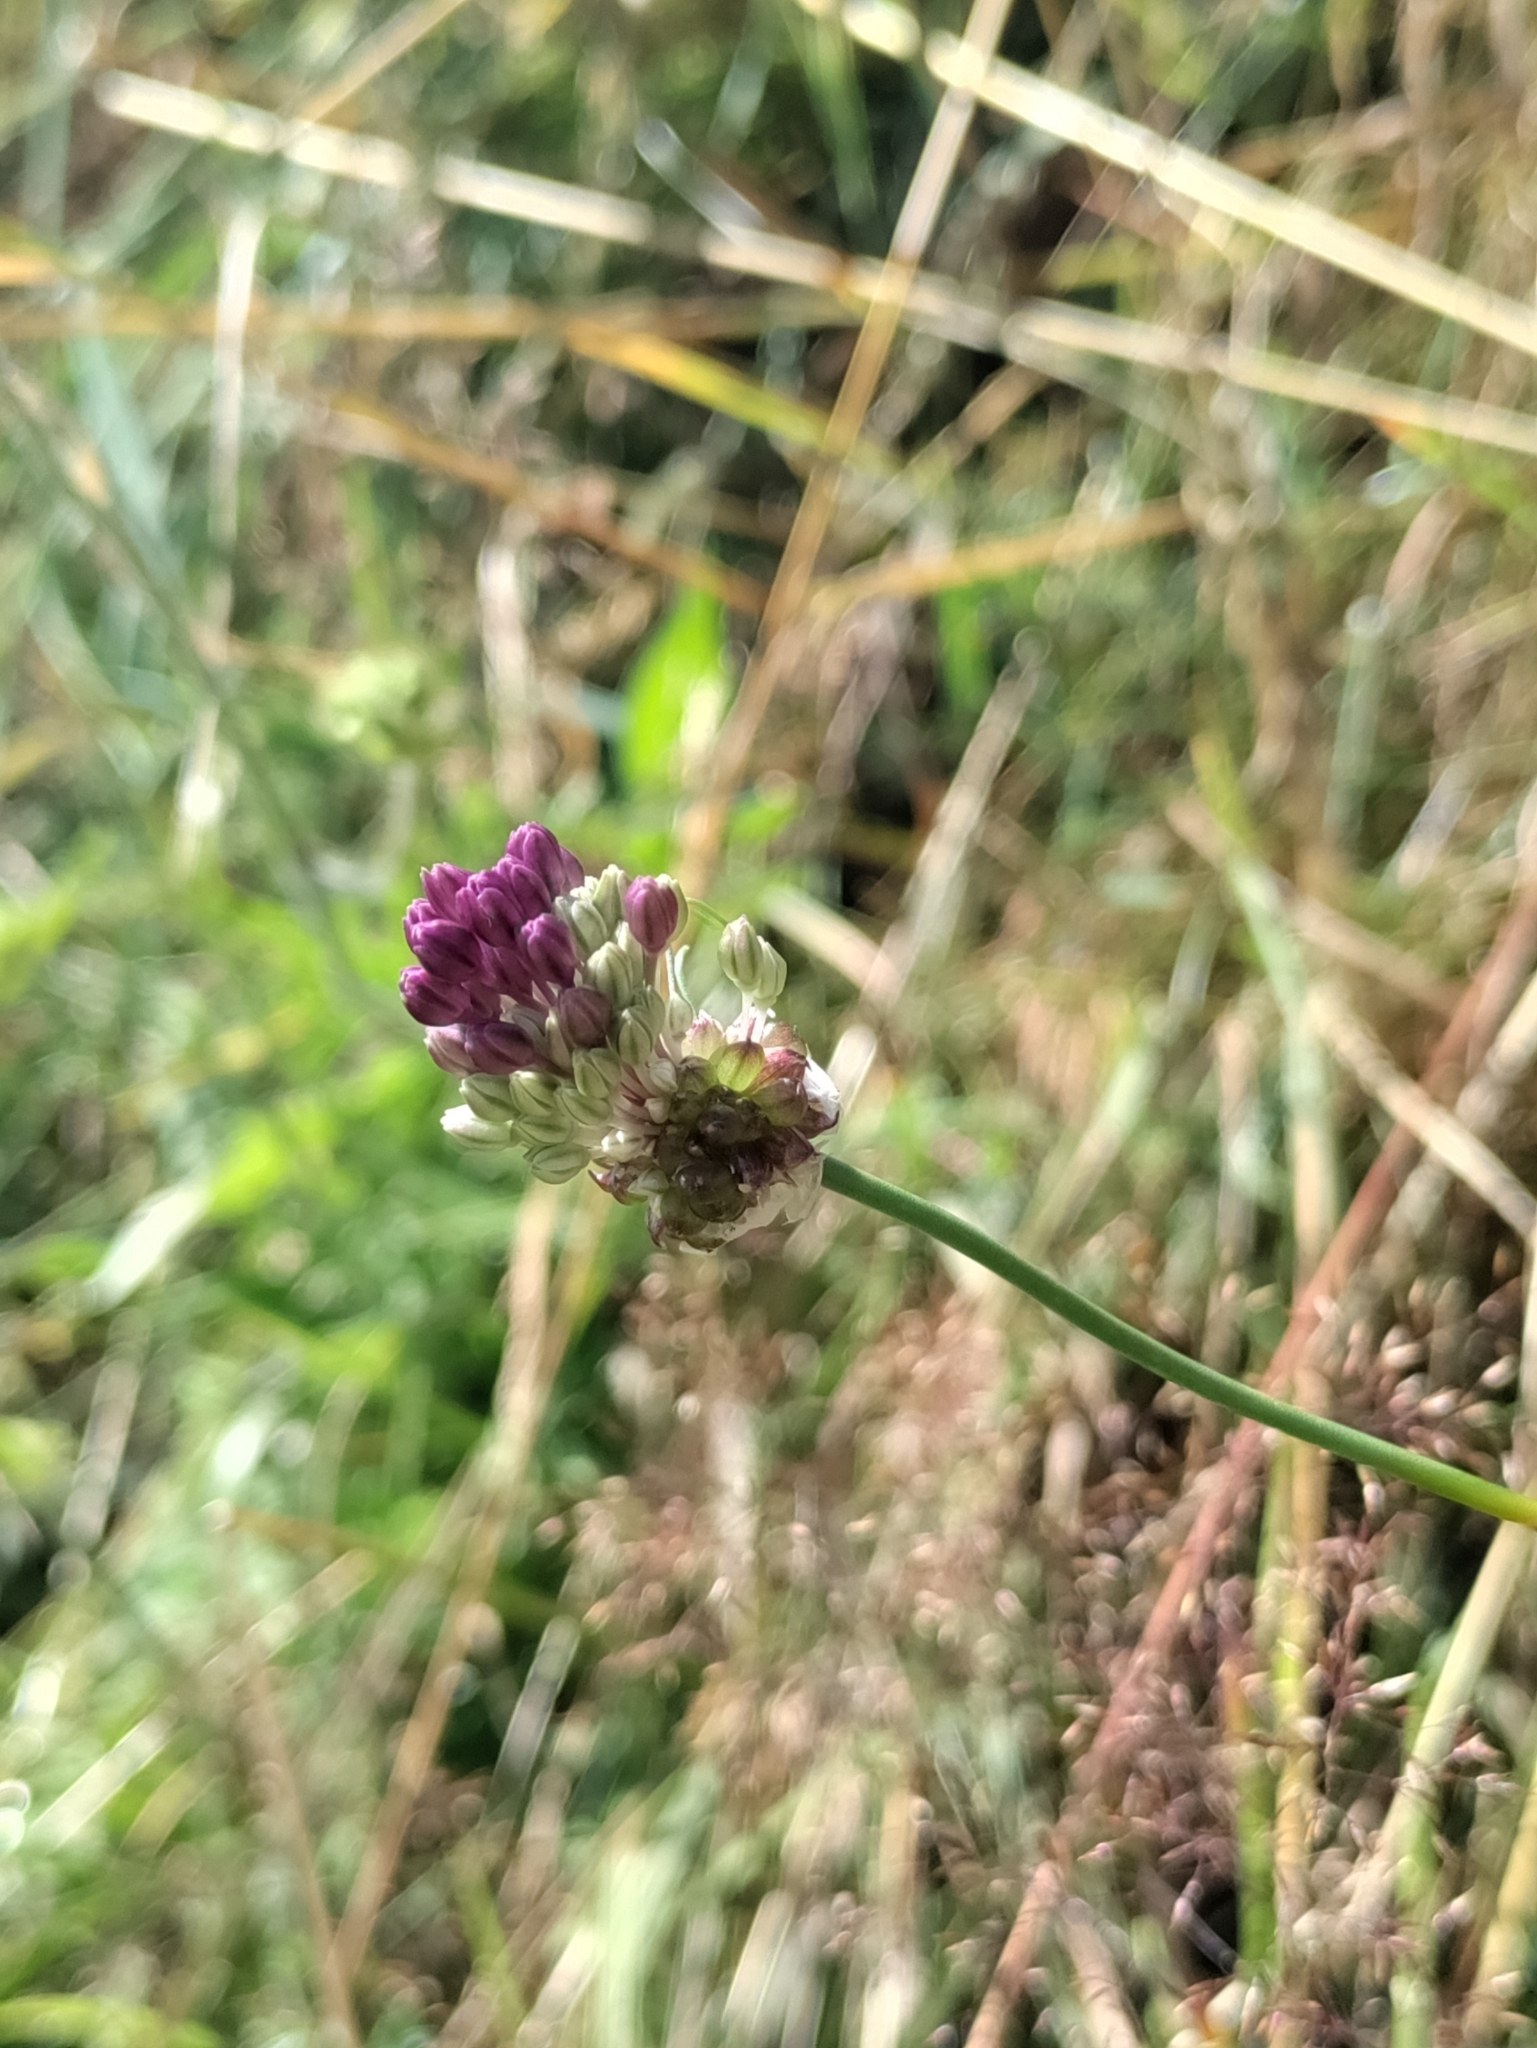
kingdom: Plantae
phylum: Tracheophyta
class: Liliopsida
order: Asparagales
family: Amaryllidaceae
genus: Allium
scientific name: Allium vineale
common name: Crow garlic
